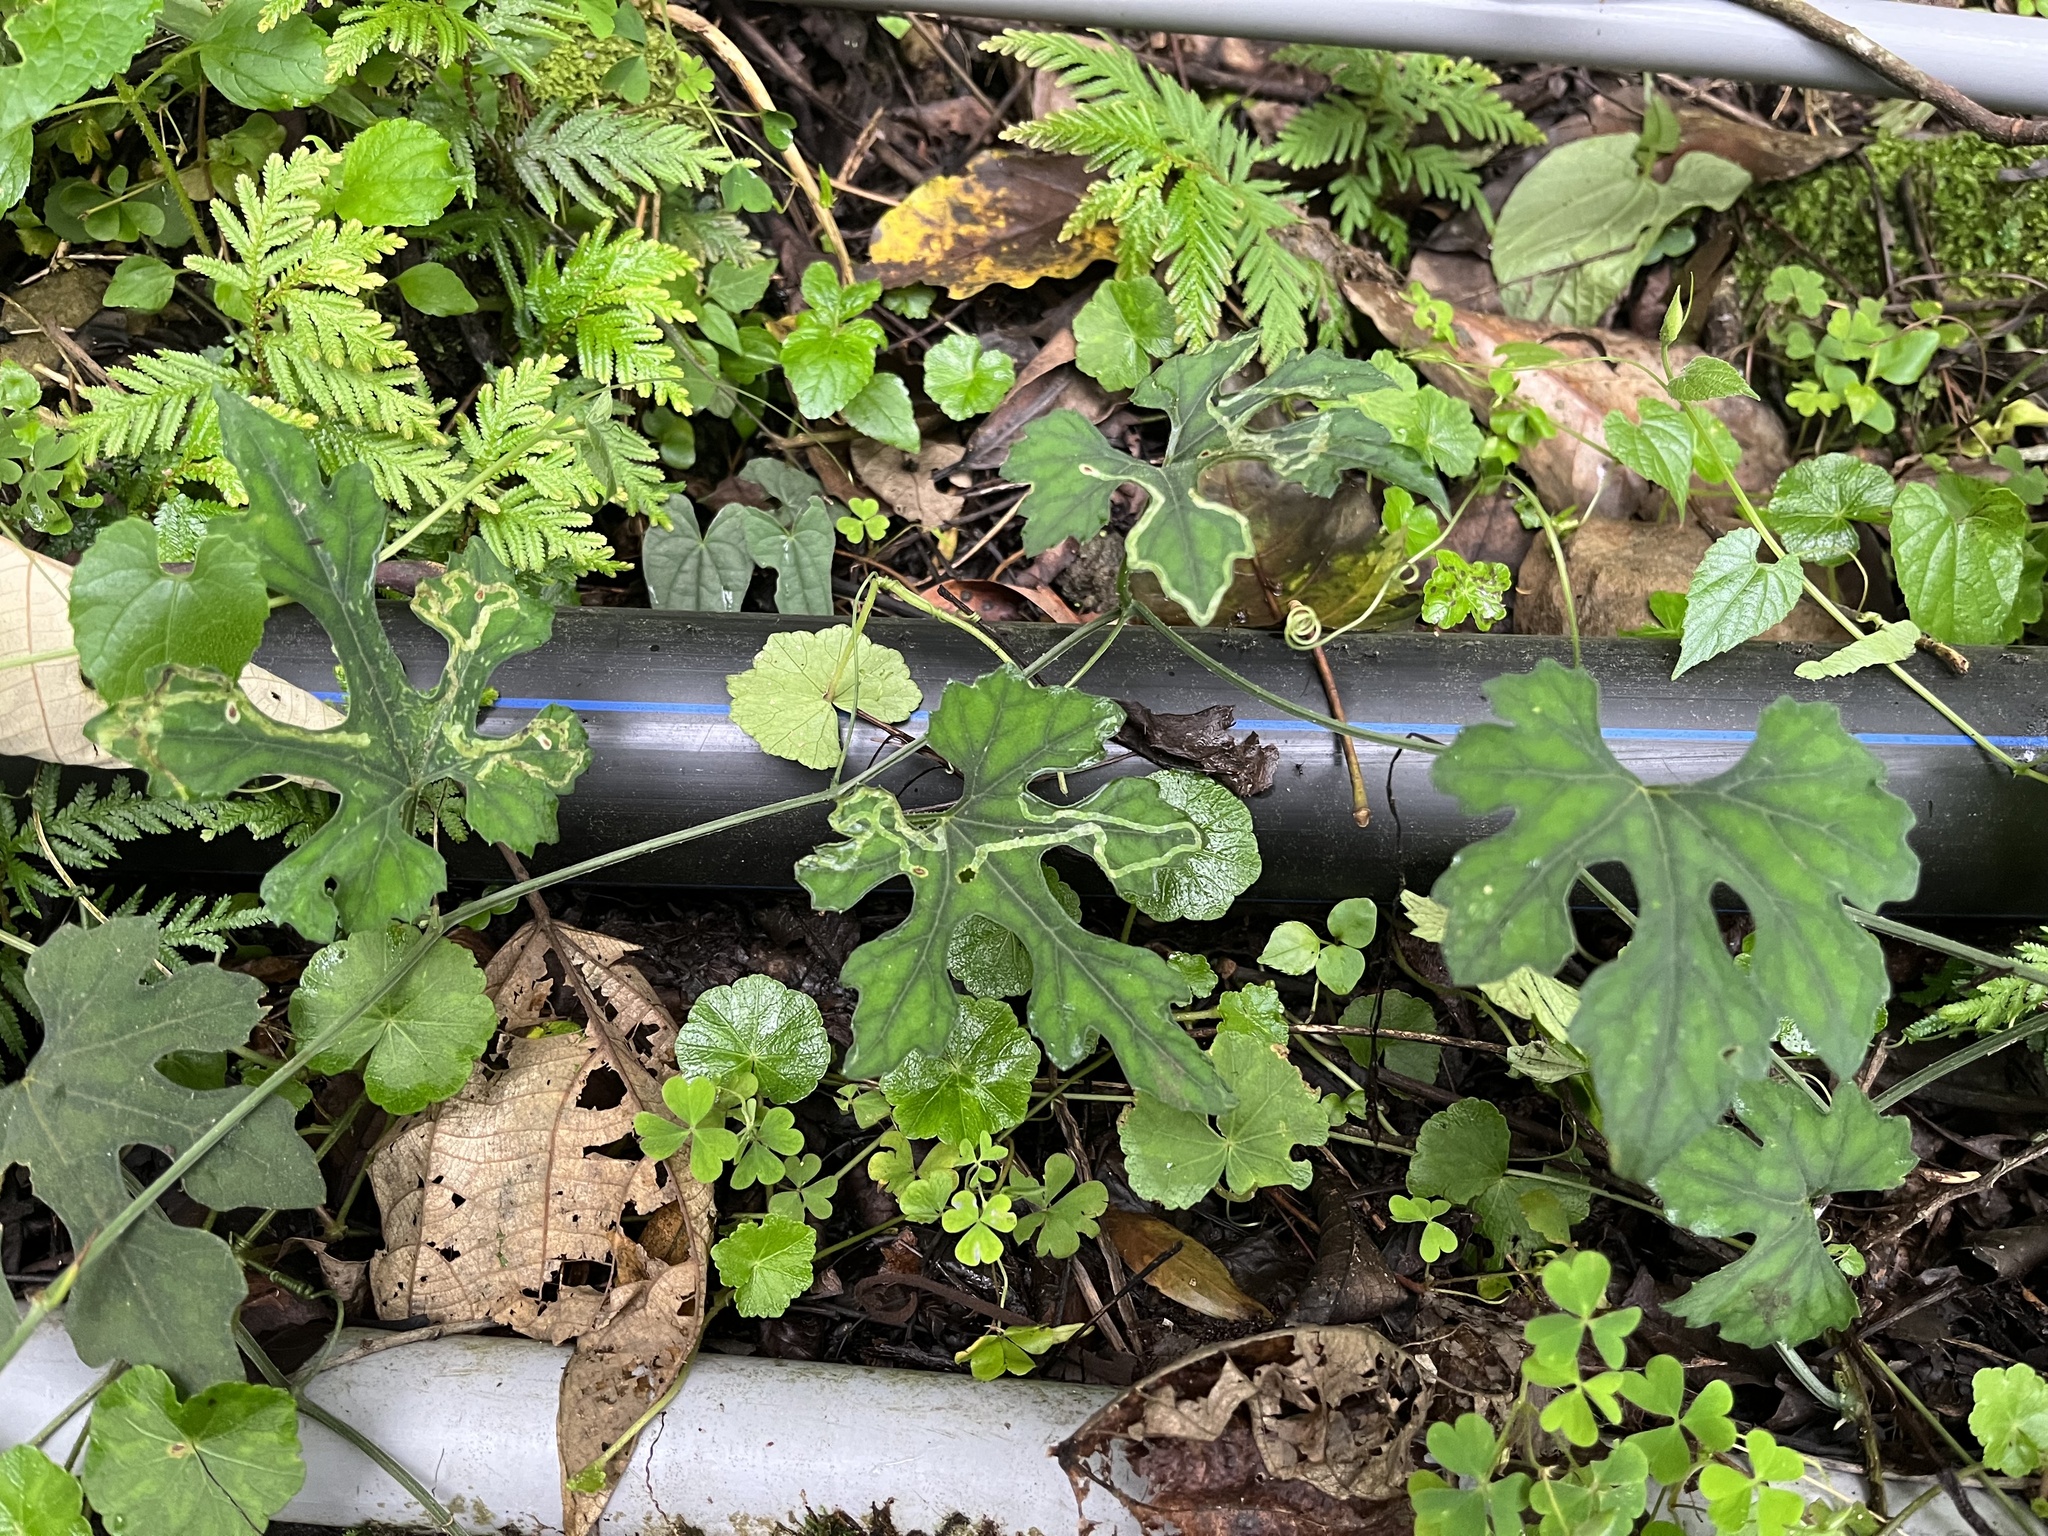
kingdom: Plantae
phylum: Tracheophyta
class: Magnoliopsida
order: Cucurbitales
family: Cucurbitaceae
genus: Trichosanthes
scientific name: Trichosanthes laceribractea
